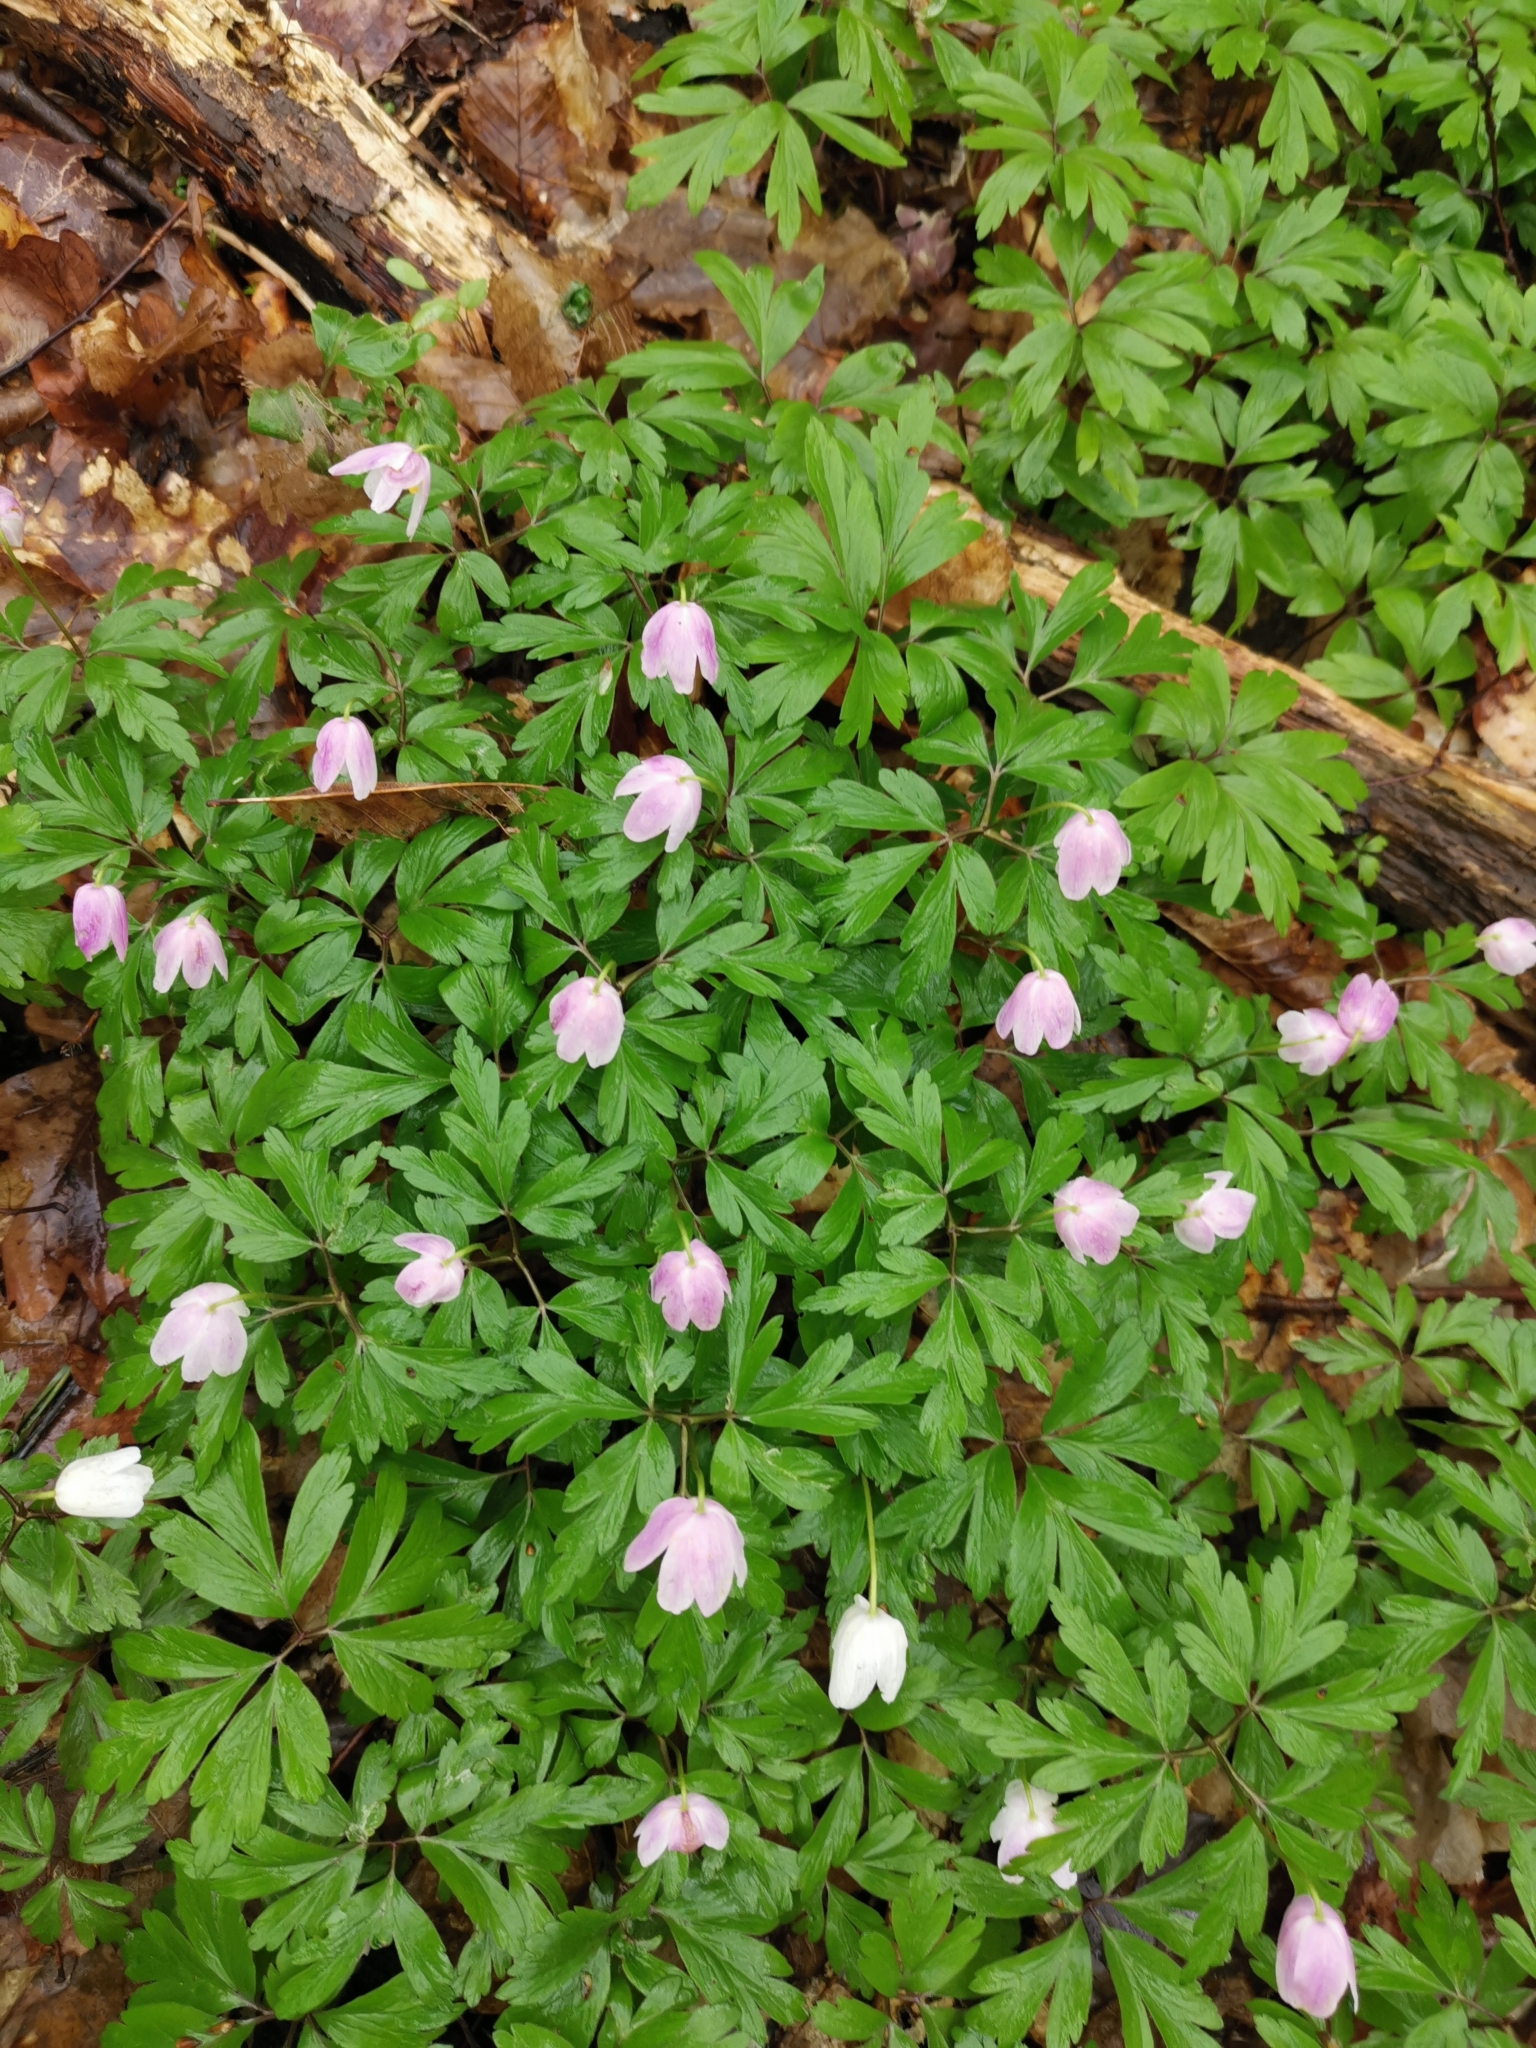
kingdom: Plantae
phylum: Tracheophyta
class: Magnoliopsida
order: Ranunculales
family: Ranunculaceae
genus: Anemone
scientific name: Anemone nemorosa
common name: Wood anemone
